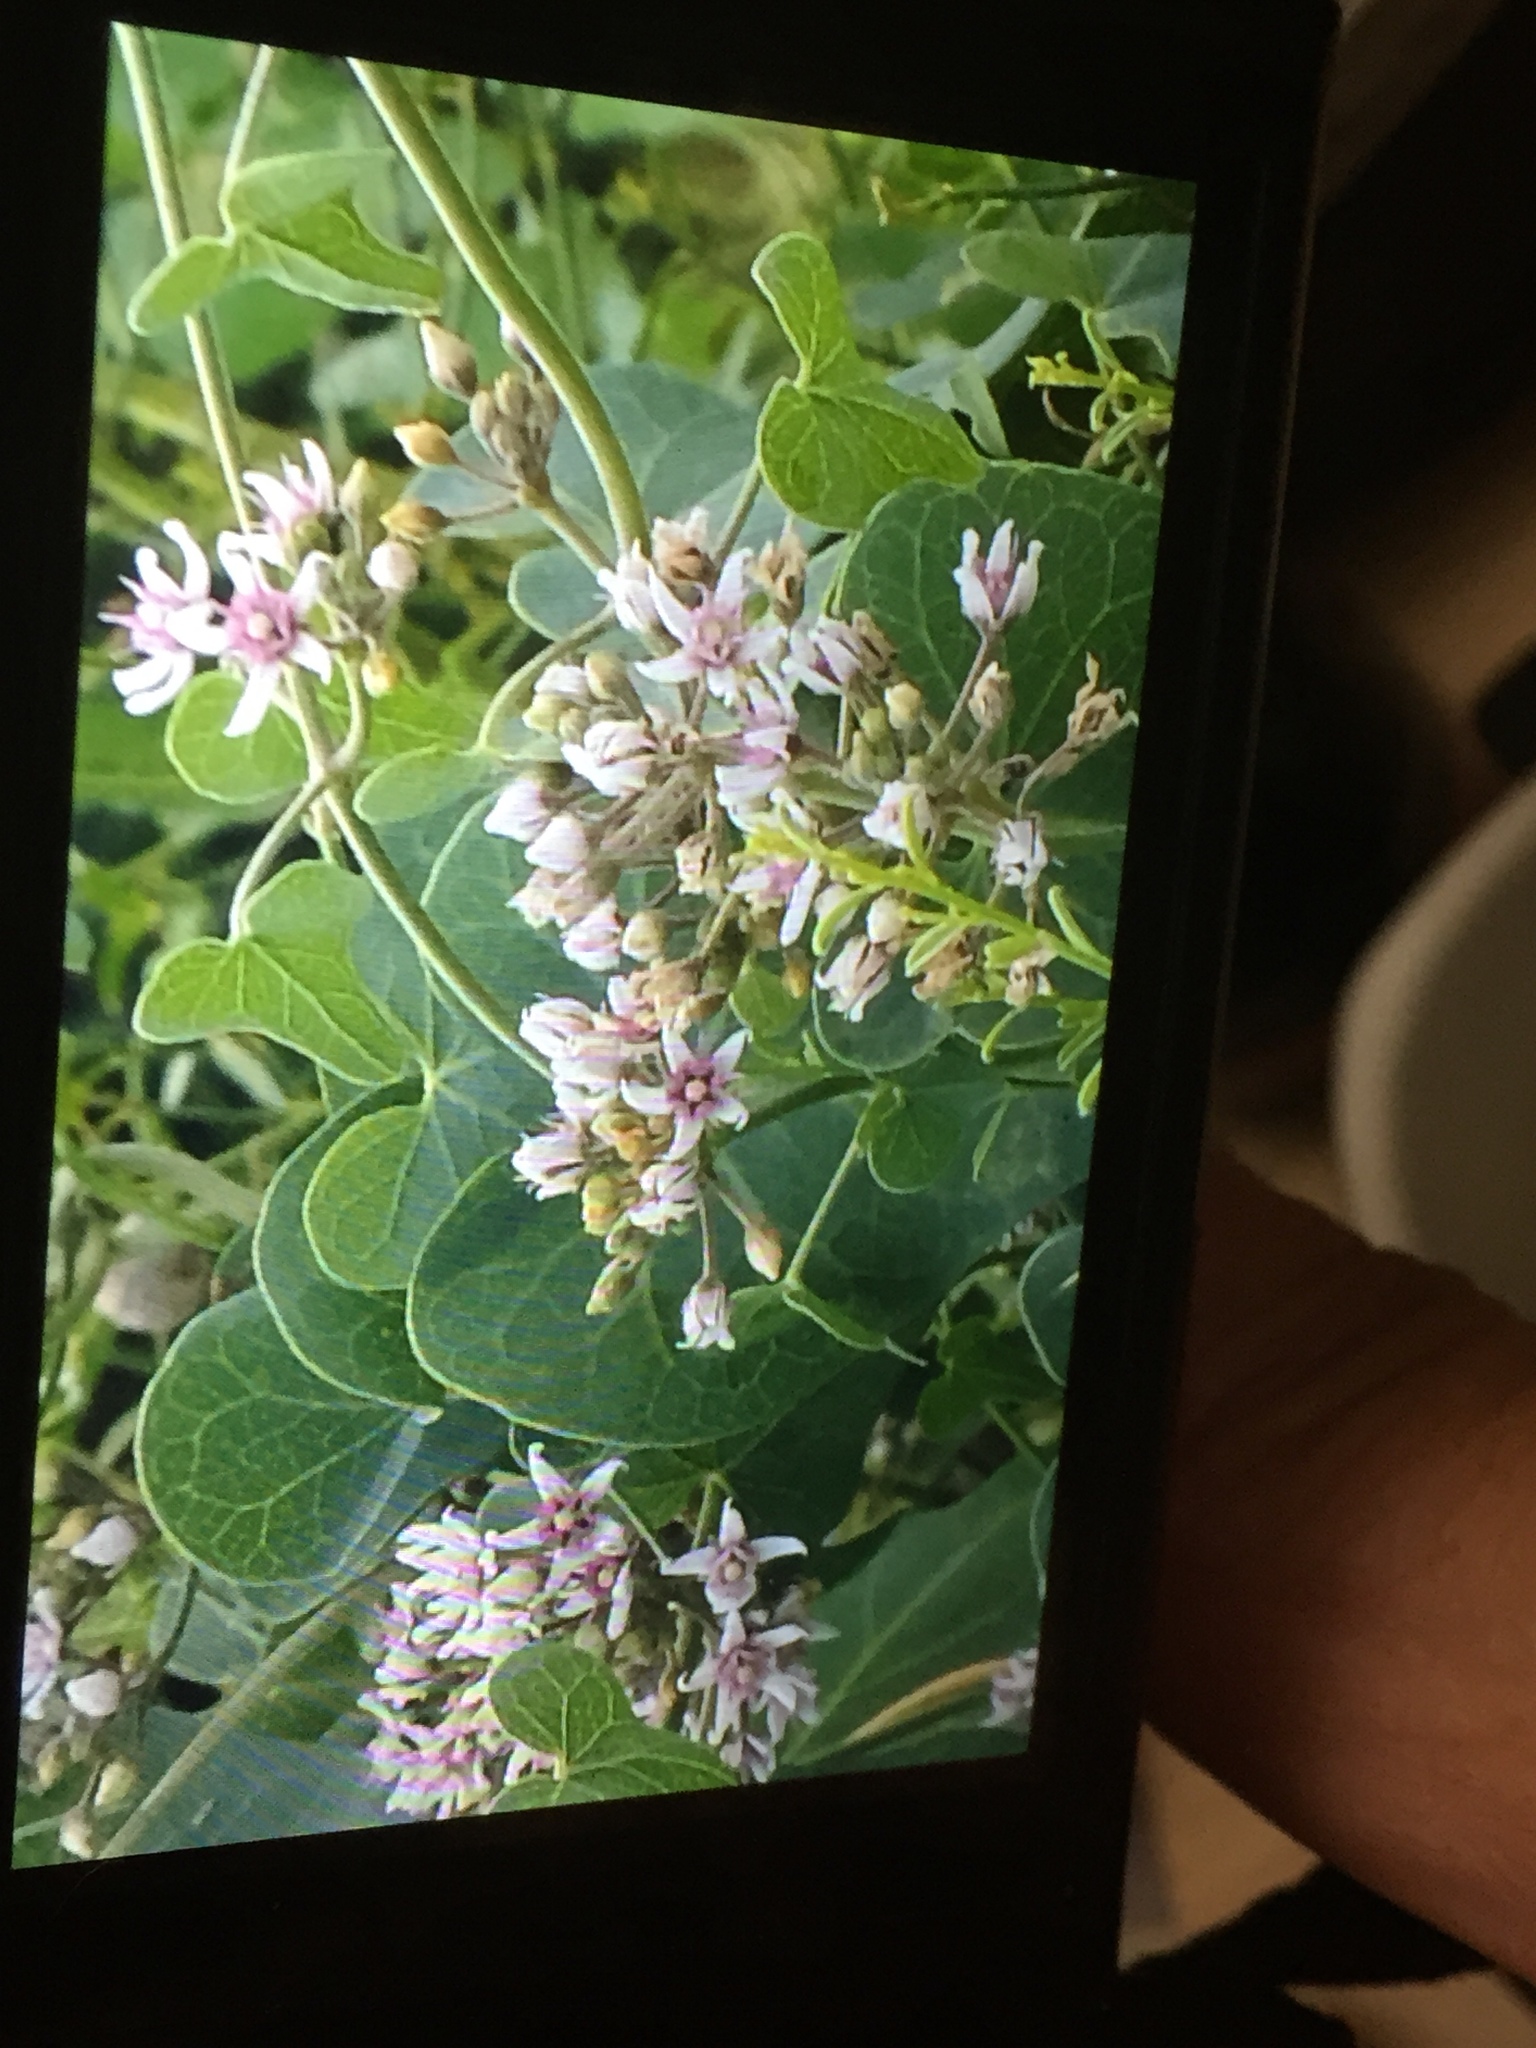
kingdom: Plantae
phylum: Tracheophyta
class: Magnoliopsida
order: Gentianales
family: Apocynaceae
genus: Cynanchum
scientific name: Cynanchum acutum
